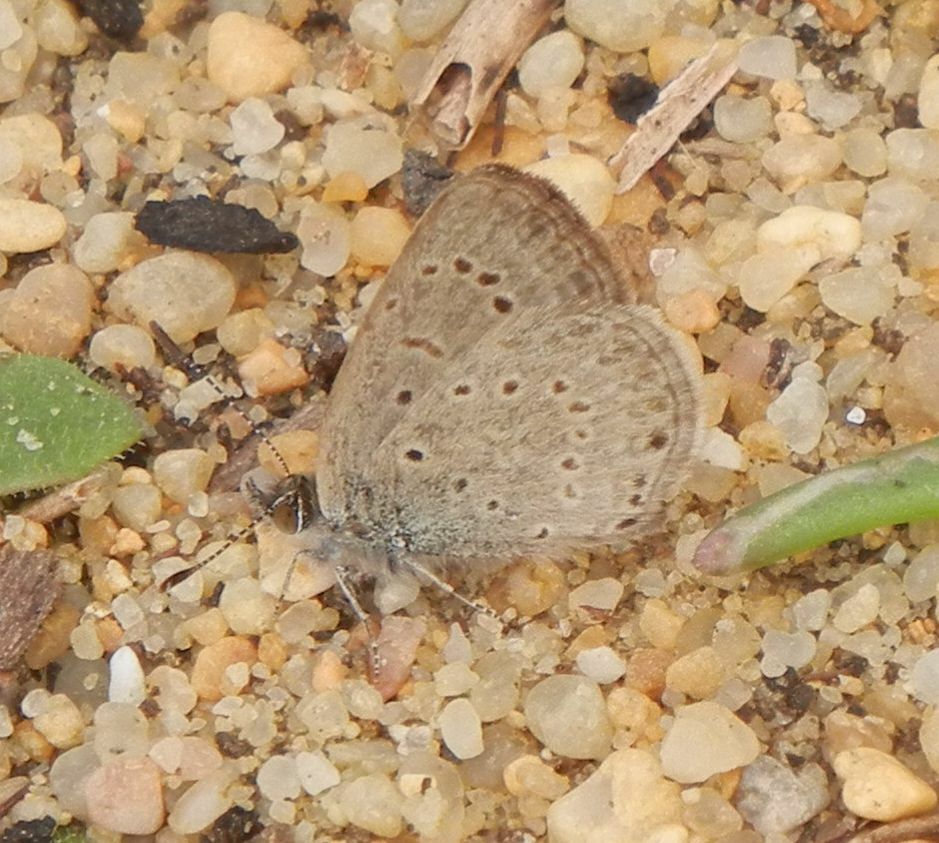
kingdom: Animalia
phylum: Arthropoda
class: Insecta
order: Lepidoptera
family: Lycaenidae
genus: Zizeeria
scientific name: Zizeeria knysna
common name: African grass blue
